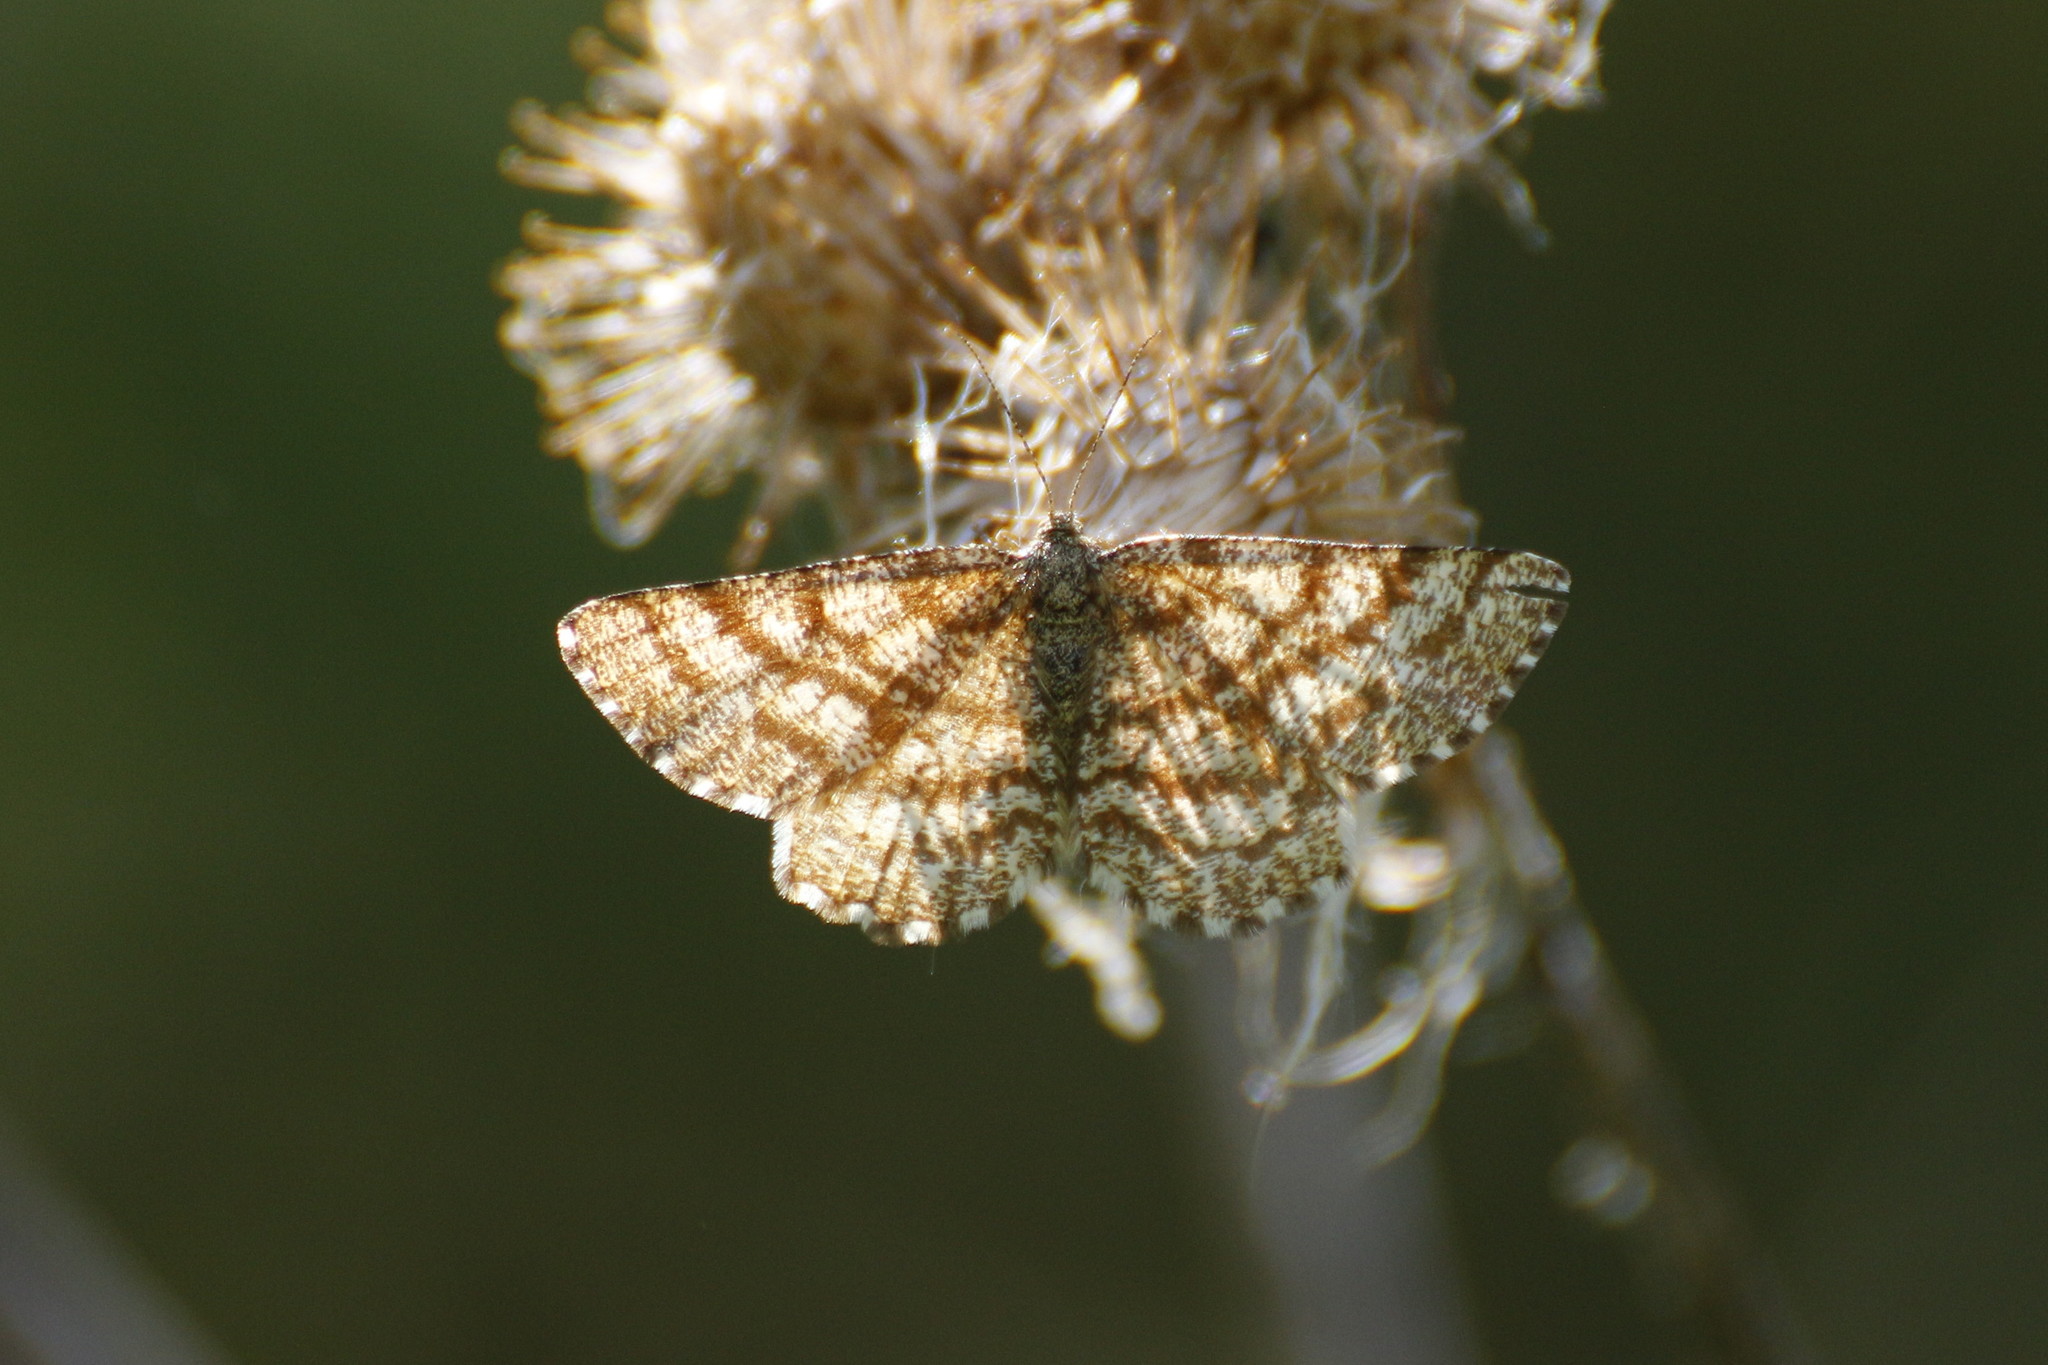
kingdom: Animalia
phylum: Arthropoda
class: Insecta
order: Lepidoptera
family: Geometridae
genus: Ematurga
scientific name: Ematurga atomaria
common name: Common heath
